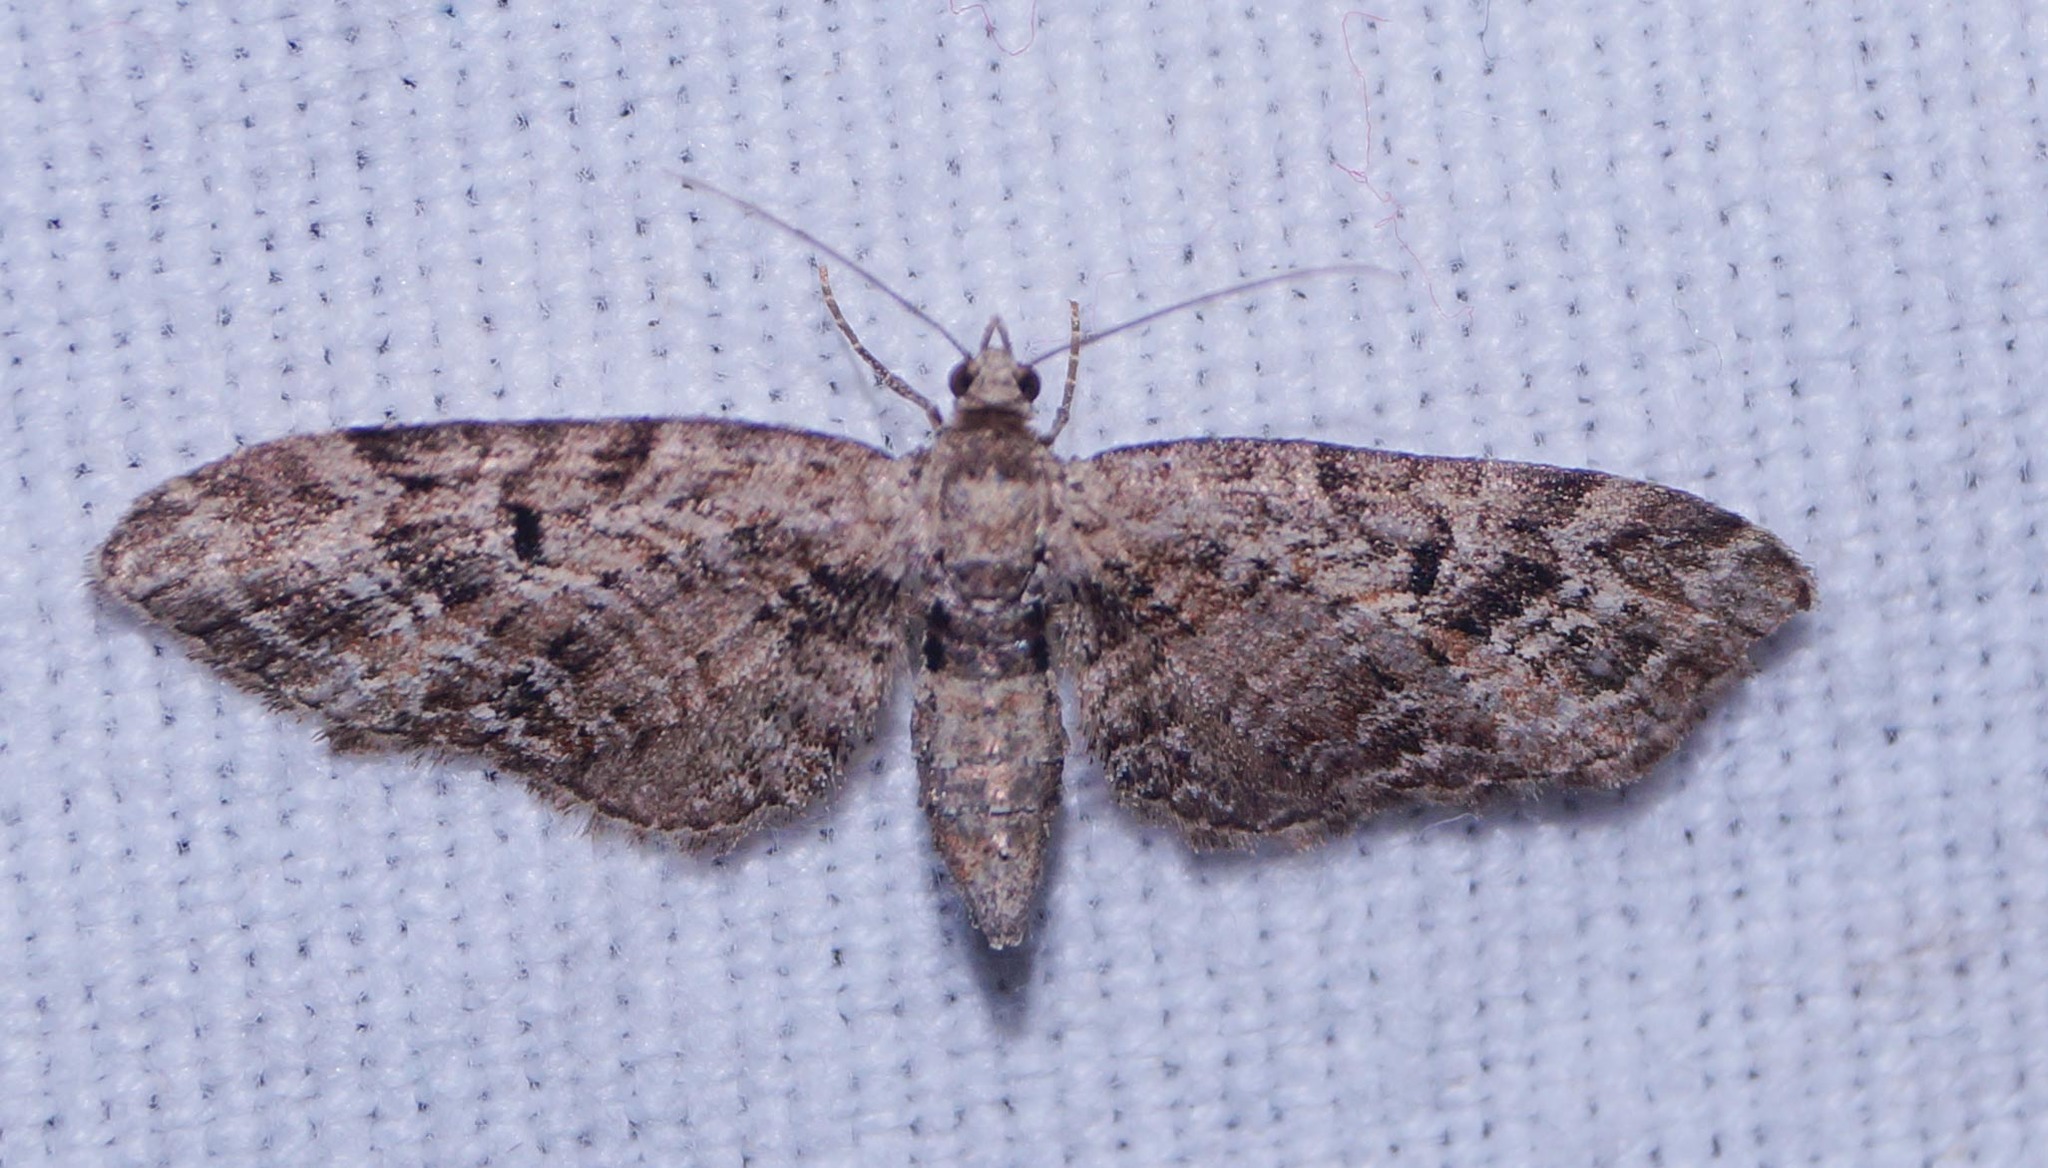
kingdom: Animalia
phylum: Arthropoda
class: Insecta
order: Lepidoptera
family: Geometridae
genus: Eupithecia
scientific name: Eupithecia exiguata
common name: Mottled pug
